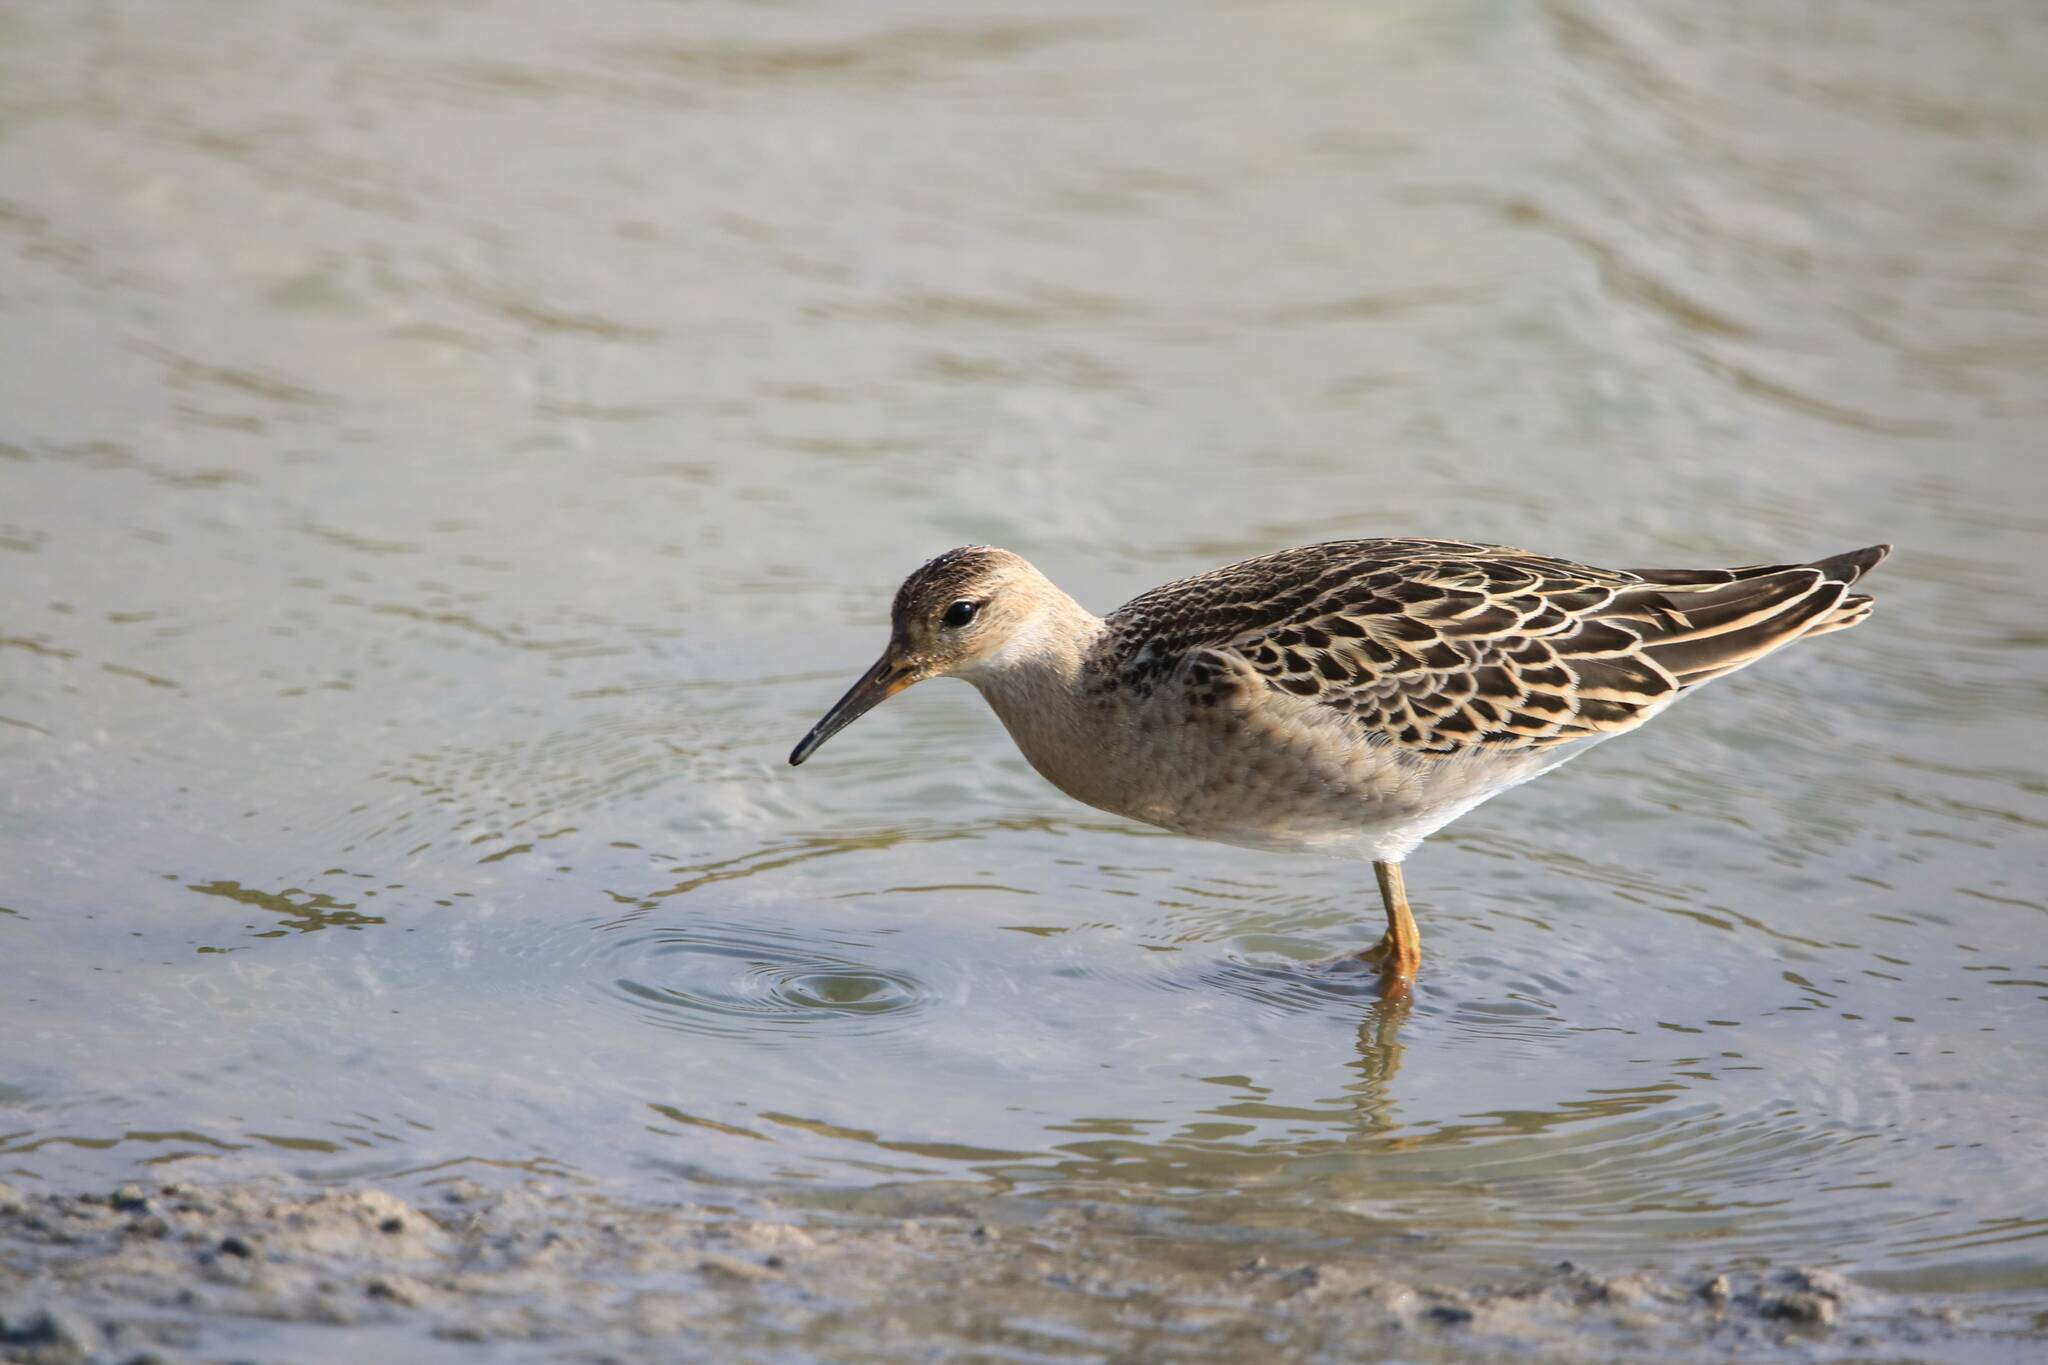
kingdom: Animalia
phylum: Chordata
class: Aves
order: Charadriiformes
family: Scolopacidae
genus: Calidris
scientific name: Calidris pugnax
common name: Ruff
